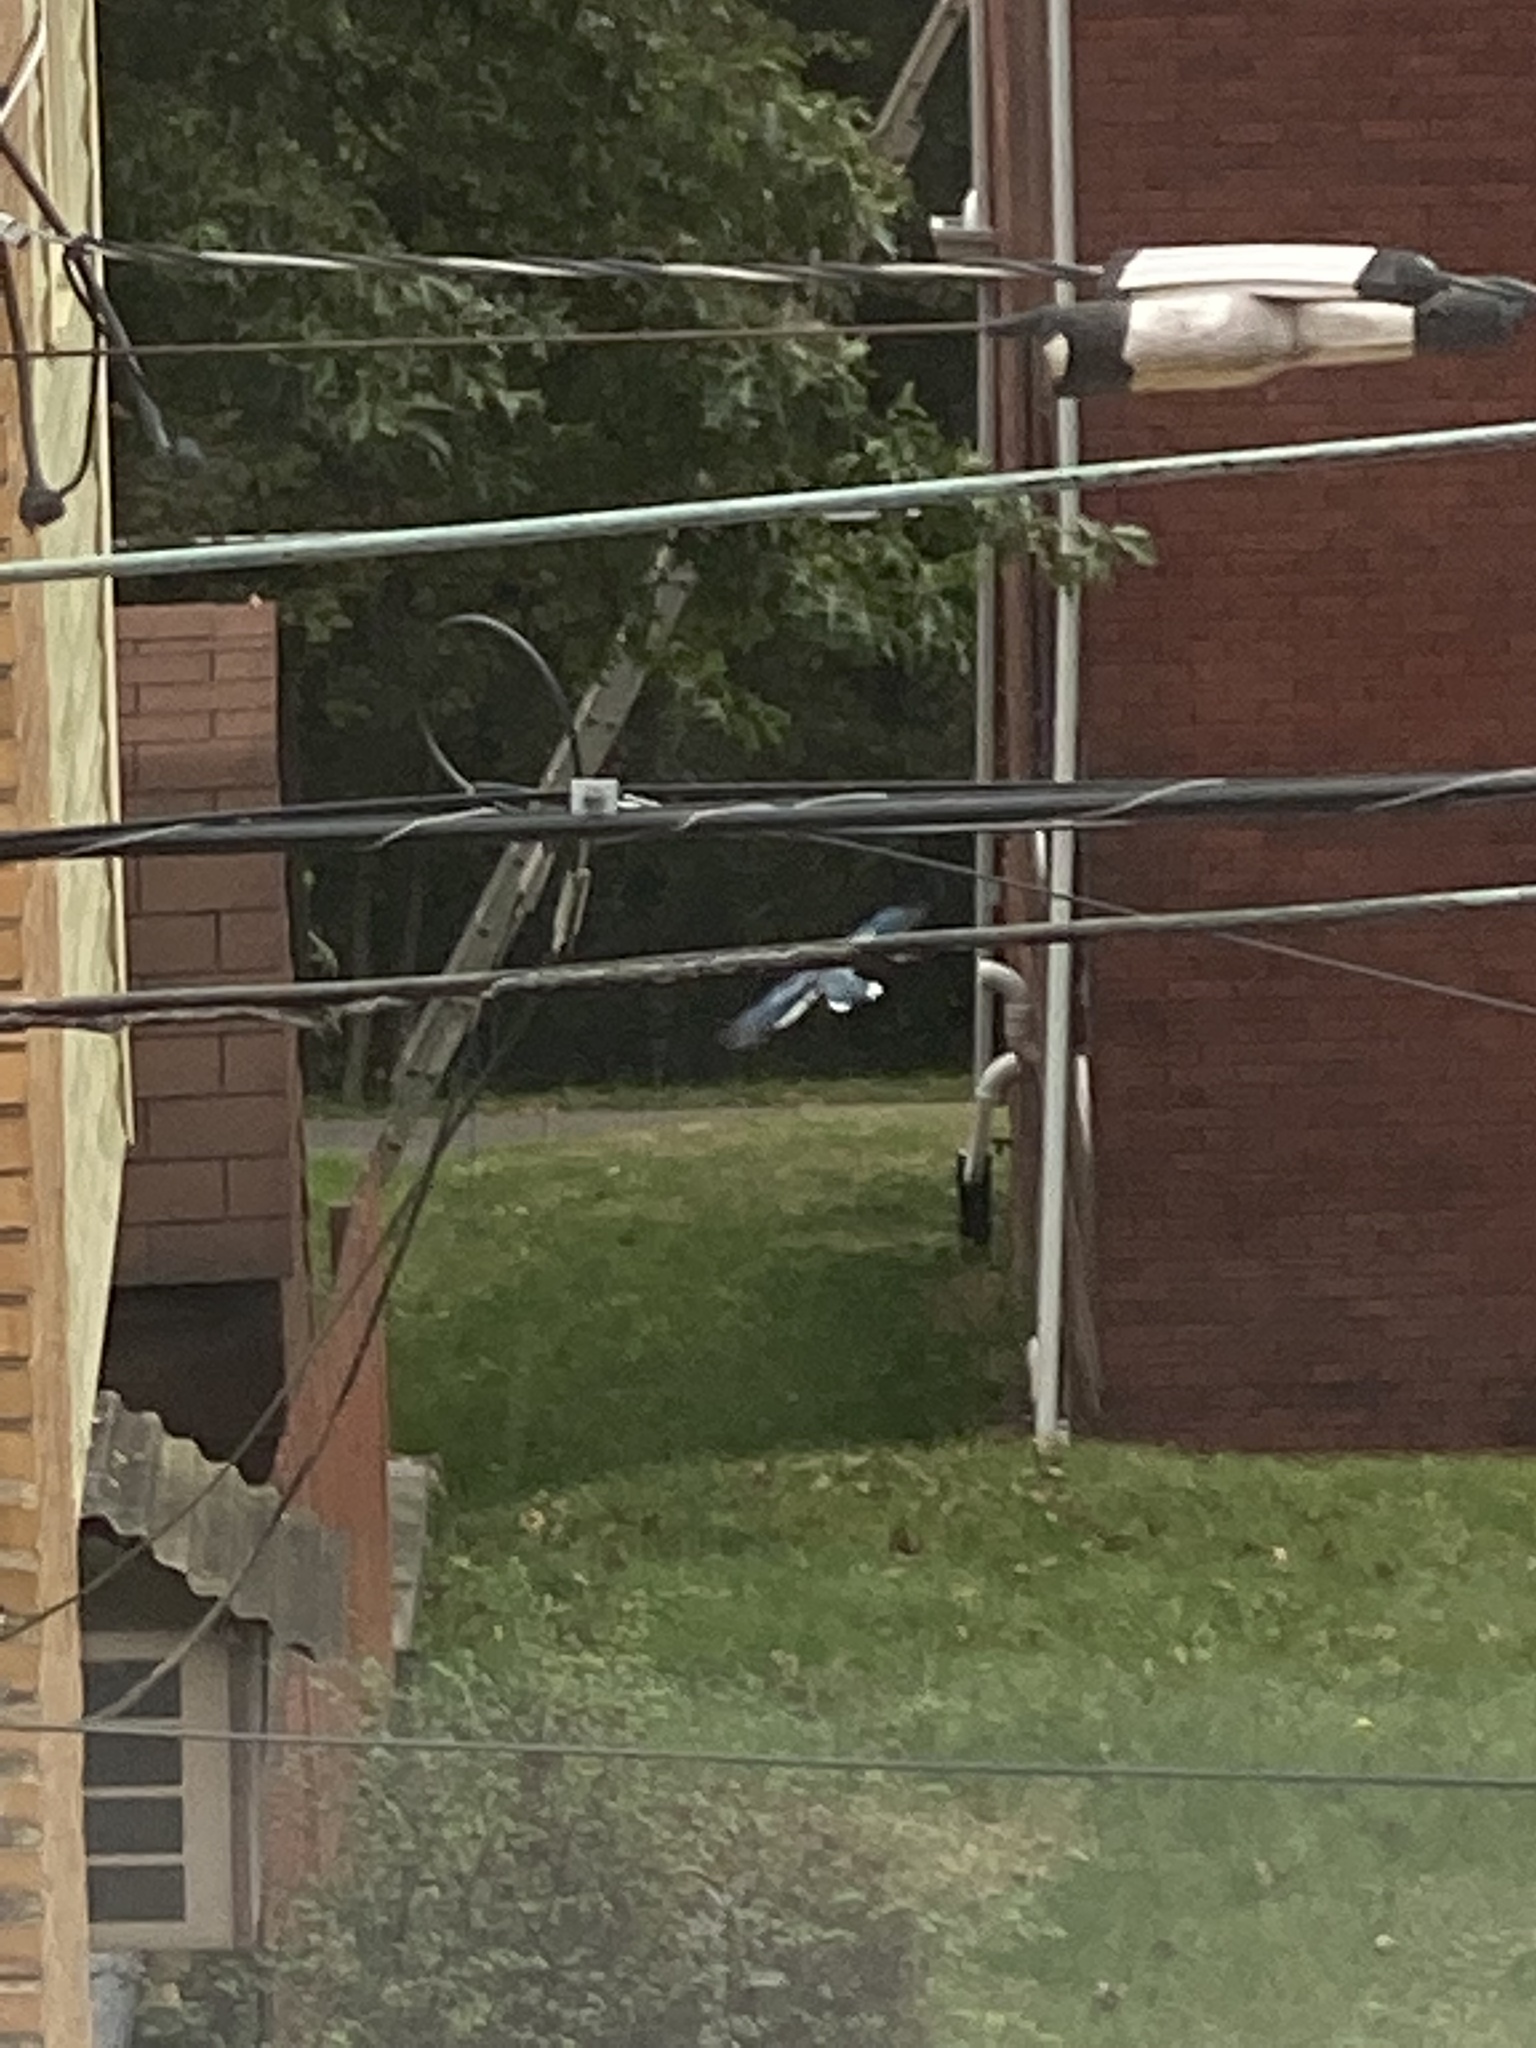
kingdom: Animalia
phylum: Chordata
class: Aves
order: Passeriformes
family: Corvidae
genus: Cyanocitta
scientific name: Cyanocitta cristata
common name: Blue jay
